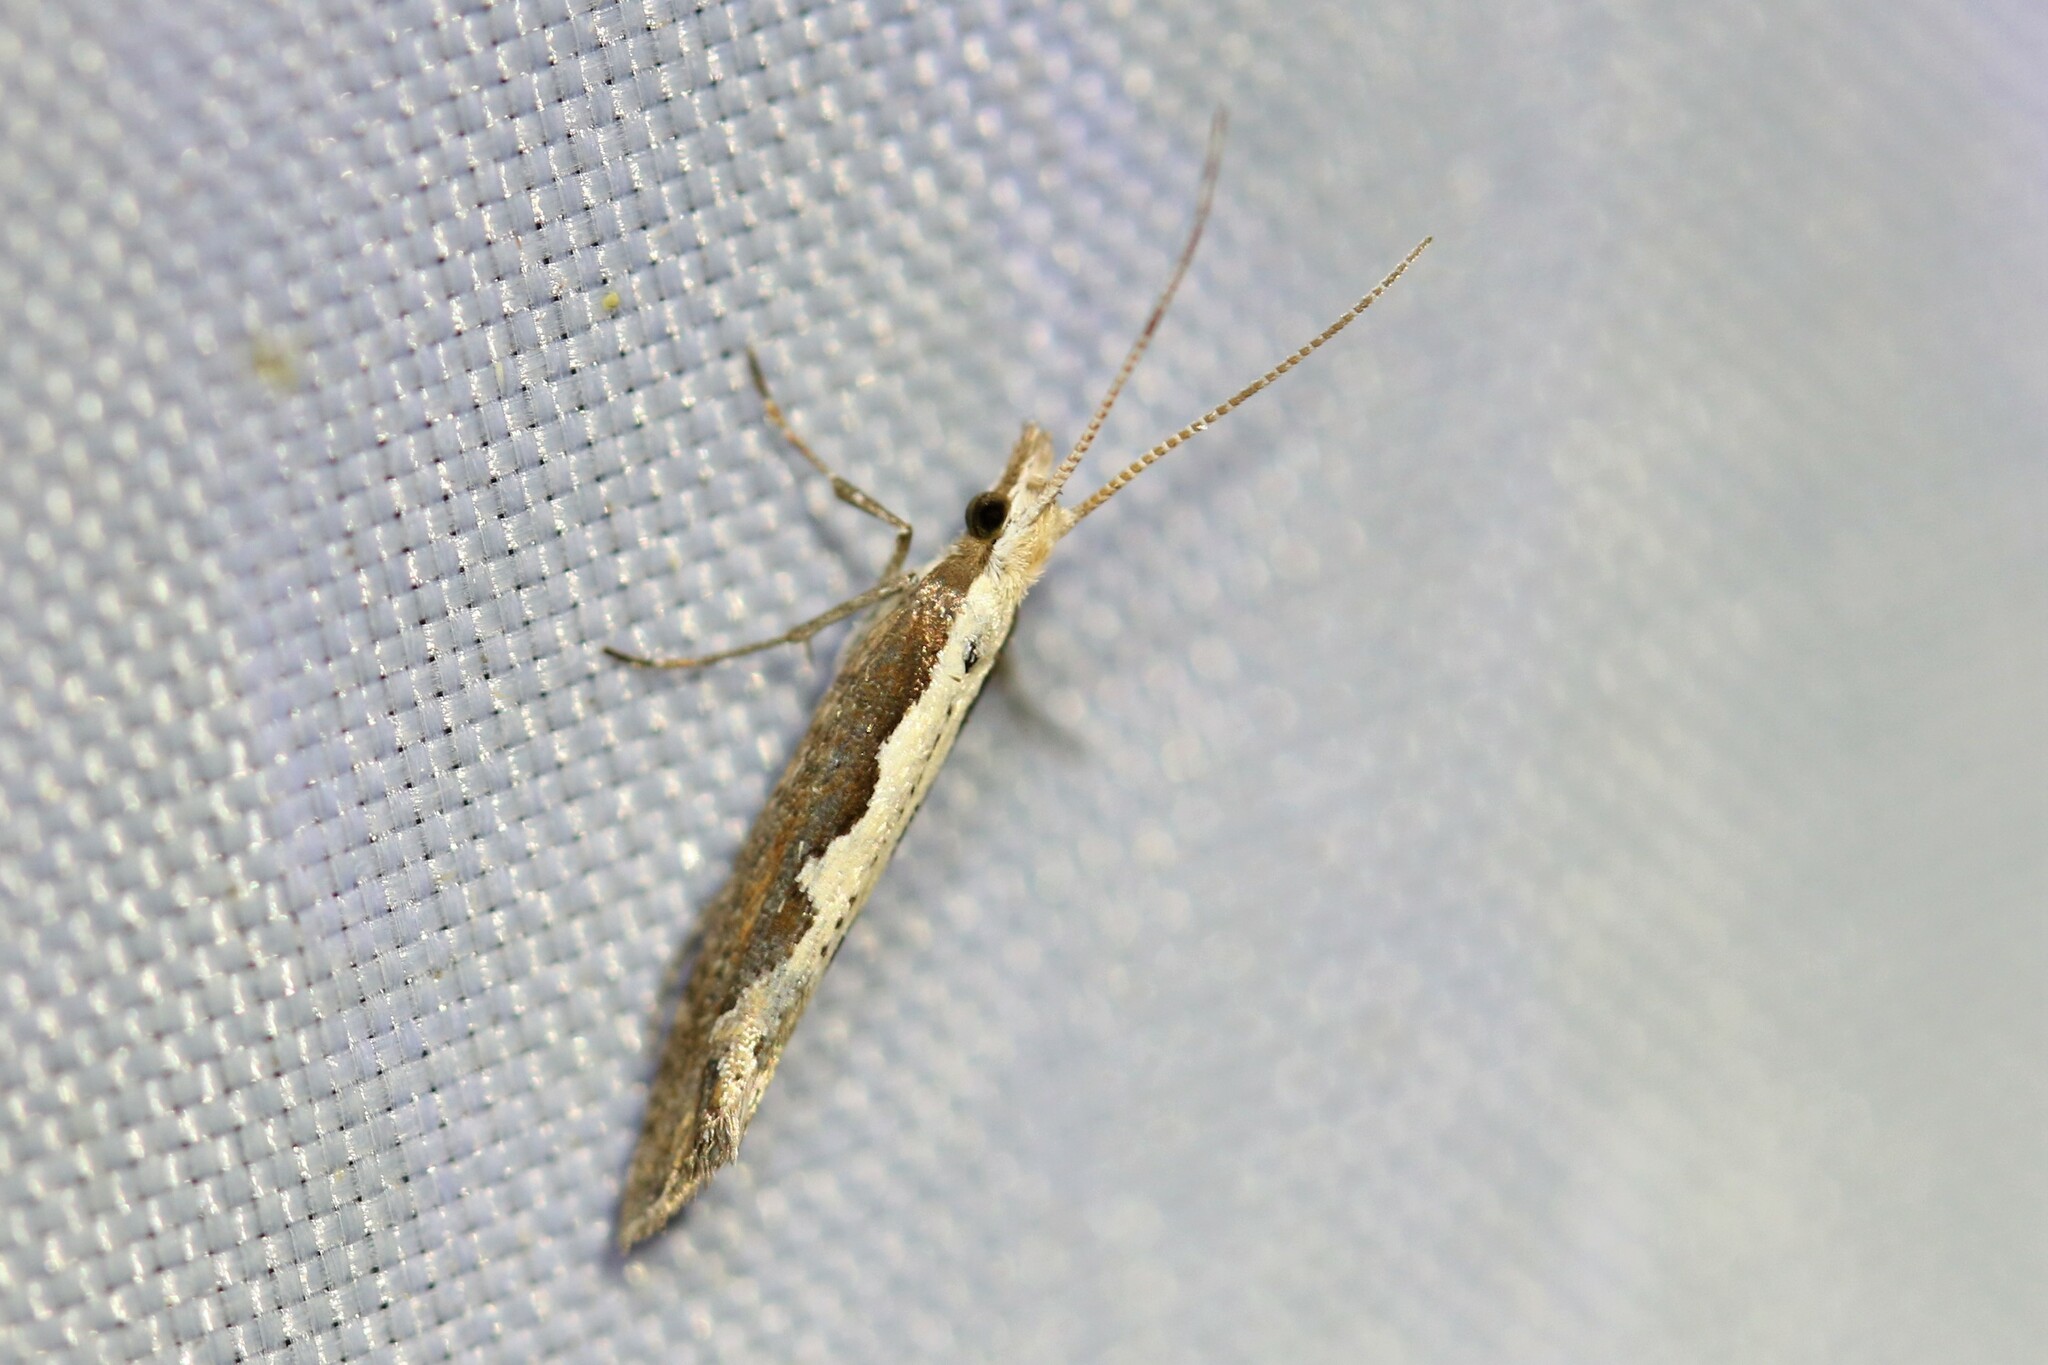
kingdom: Animalia
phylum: Arthropoda
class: Insecta
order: Lepidoptera
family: Plutellidae
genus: Plutella
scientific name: Plutella xylostella
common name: Diamond-back moth
